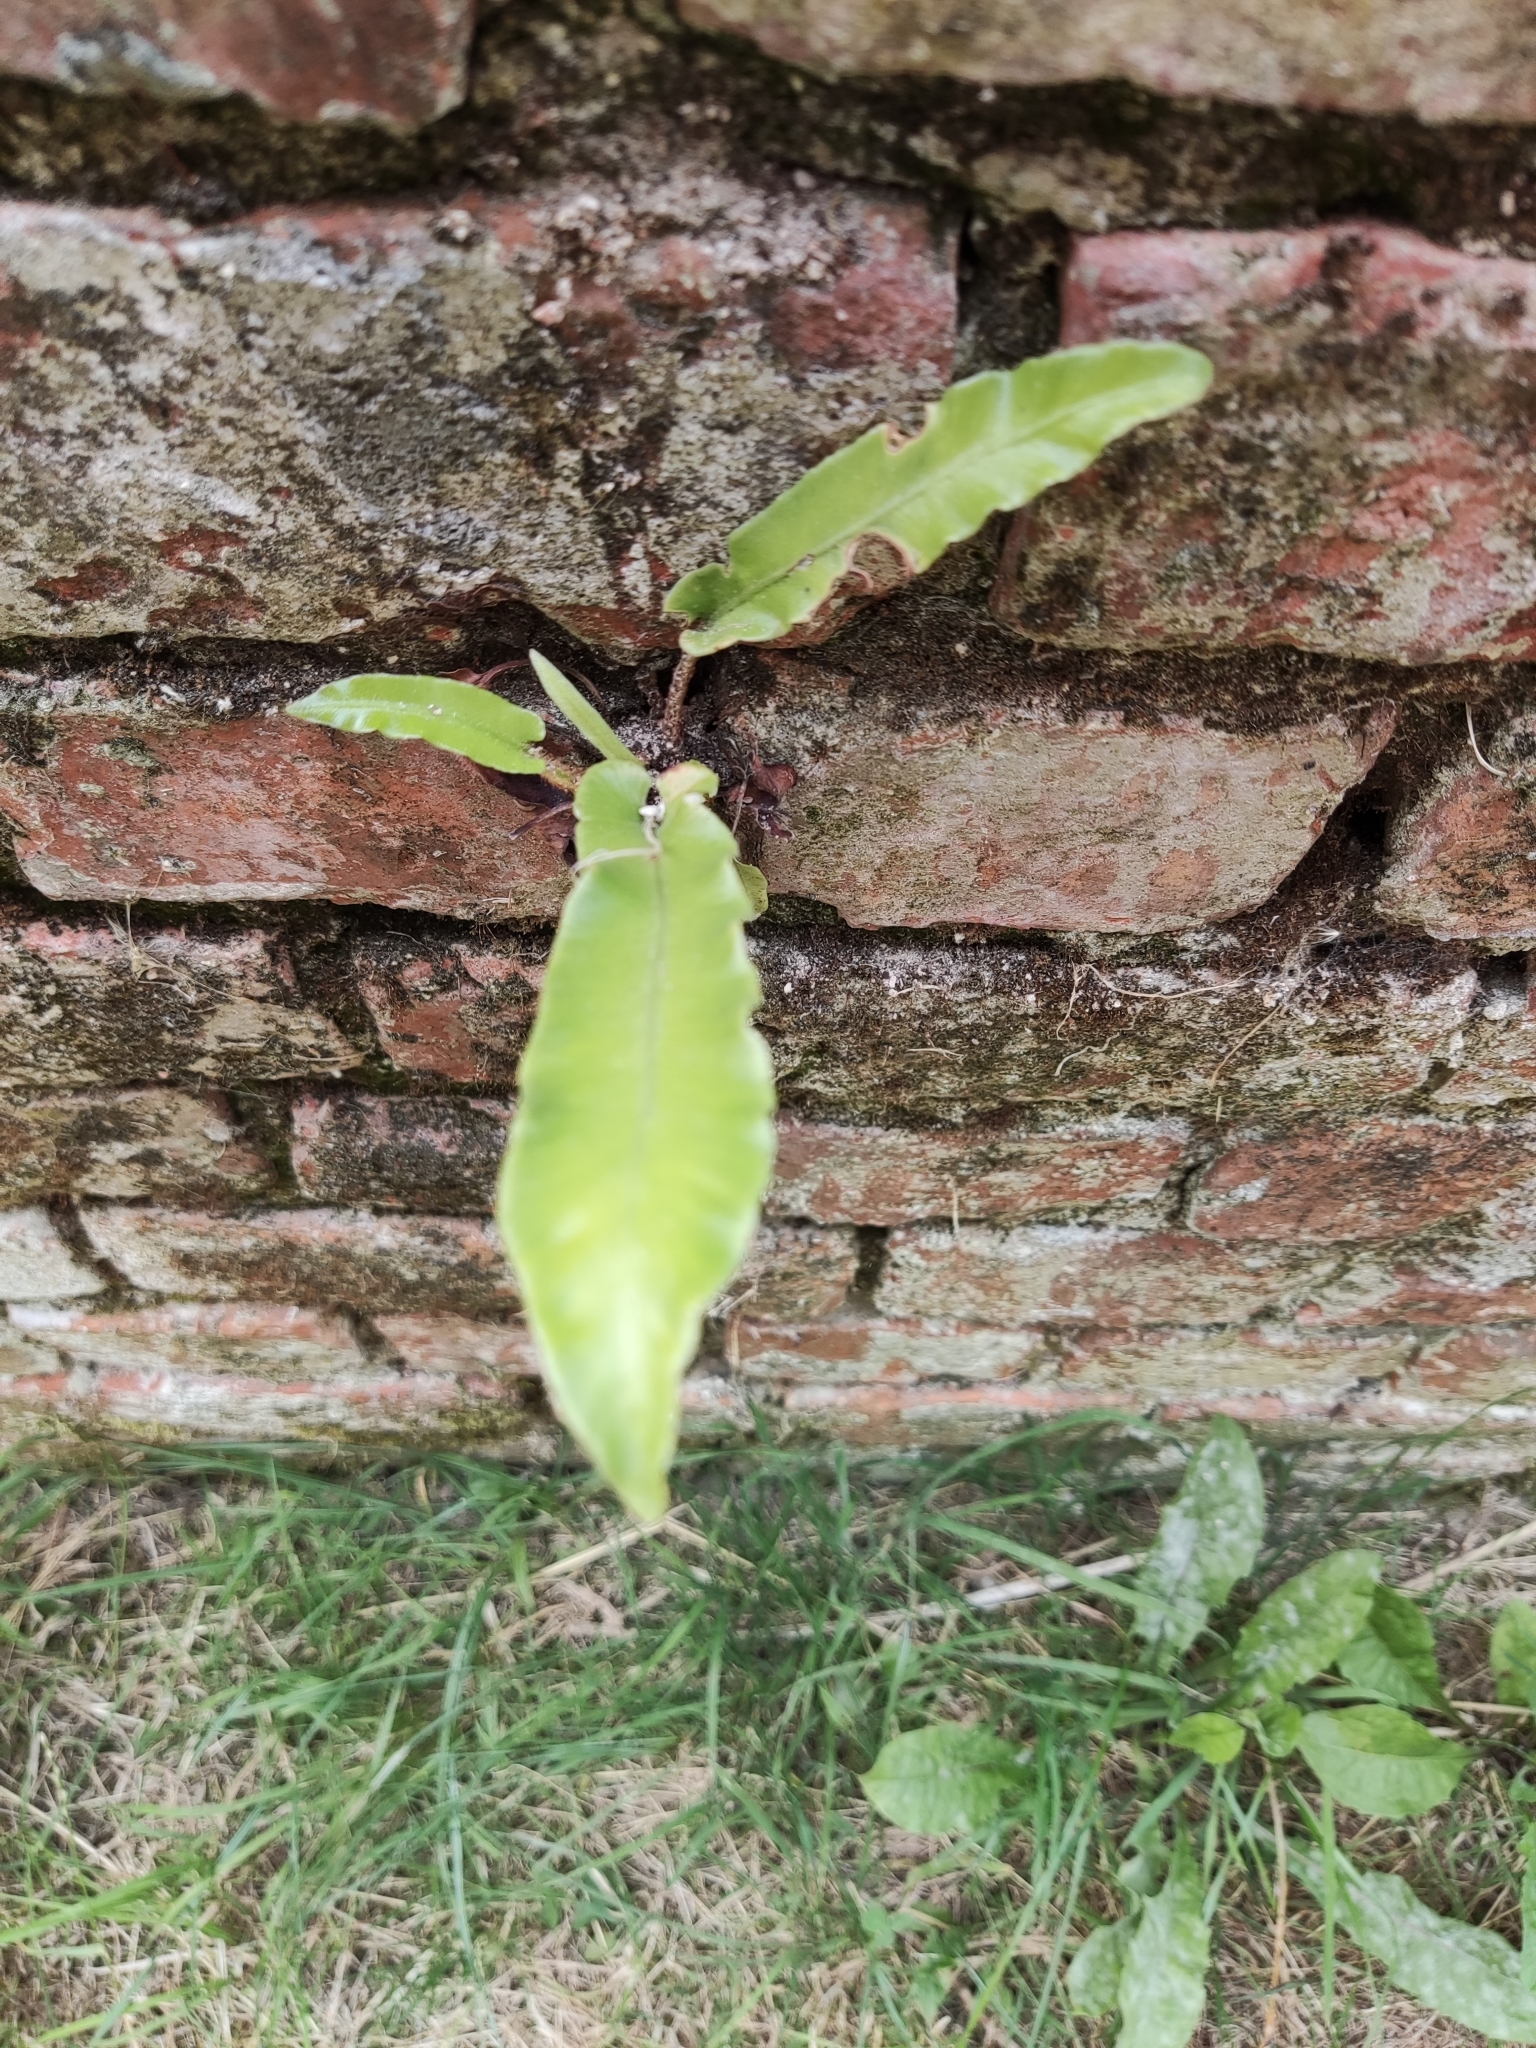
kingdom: Plantae
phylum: Tracheophyta
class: Polypodiopsida
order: Polypodiales
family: Aspleniaceae
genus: Asplenium
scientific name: Asplenium scolopendrium
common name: Hart's-tongue fern
